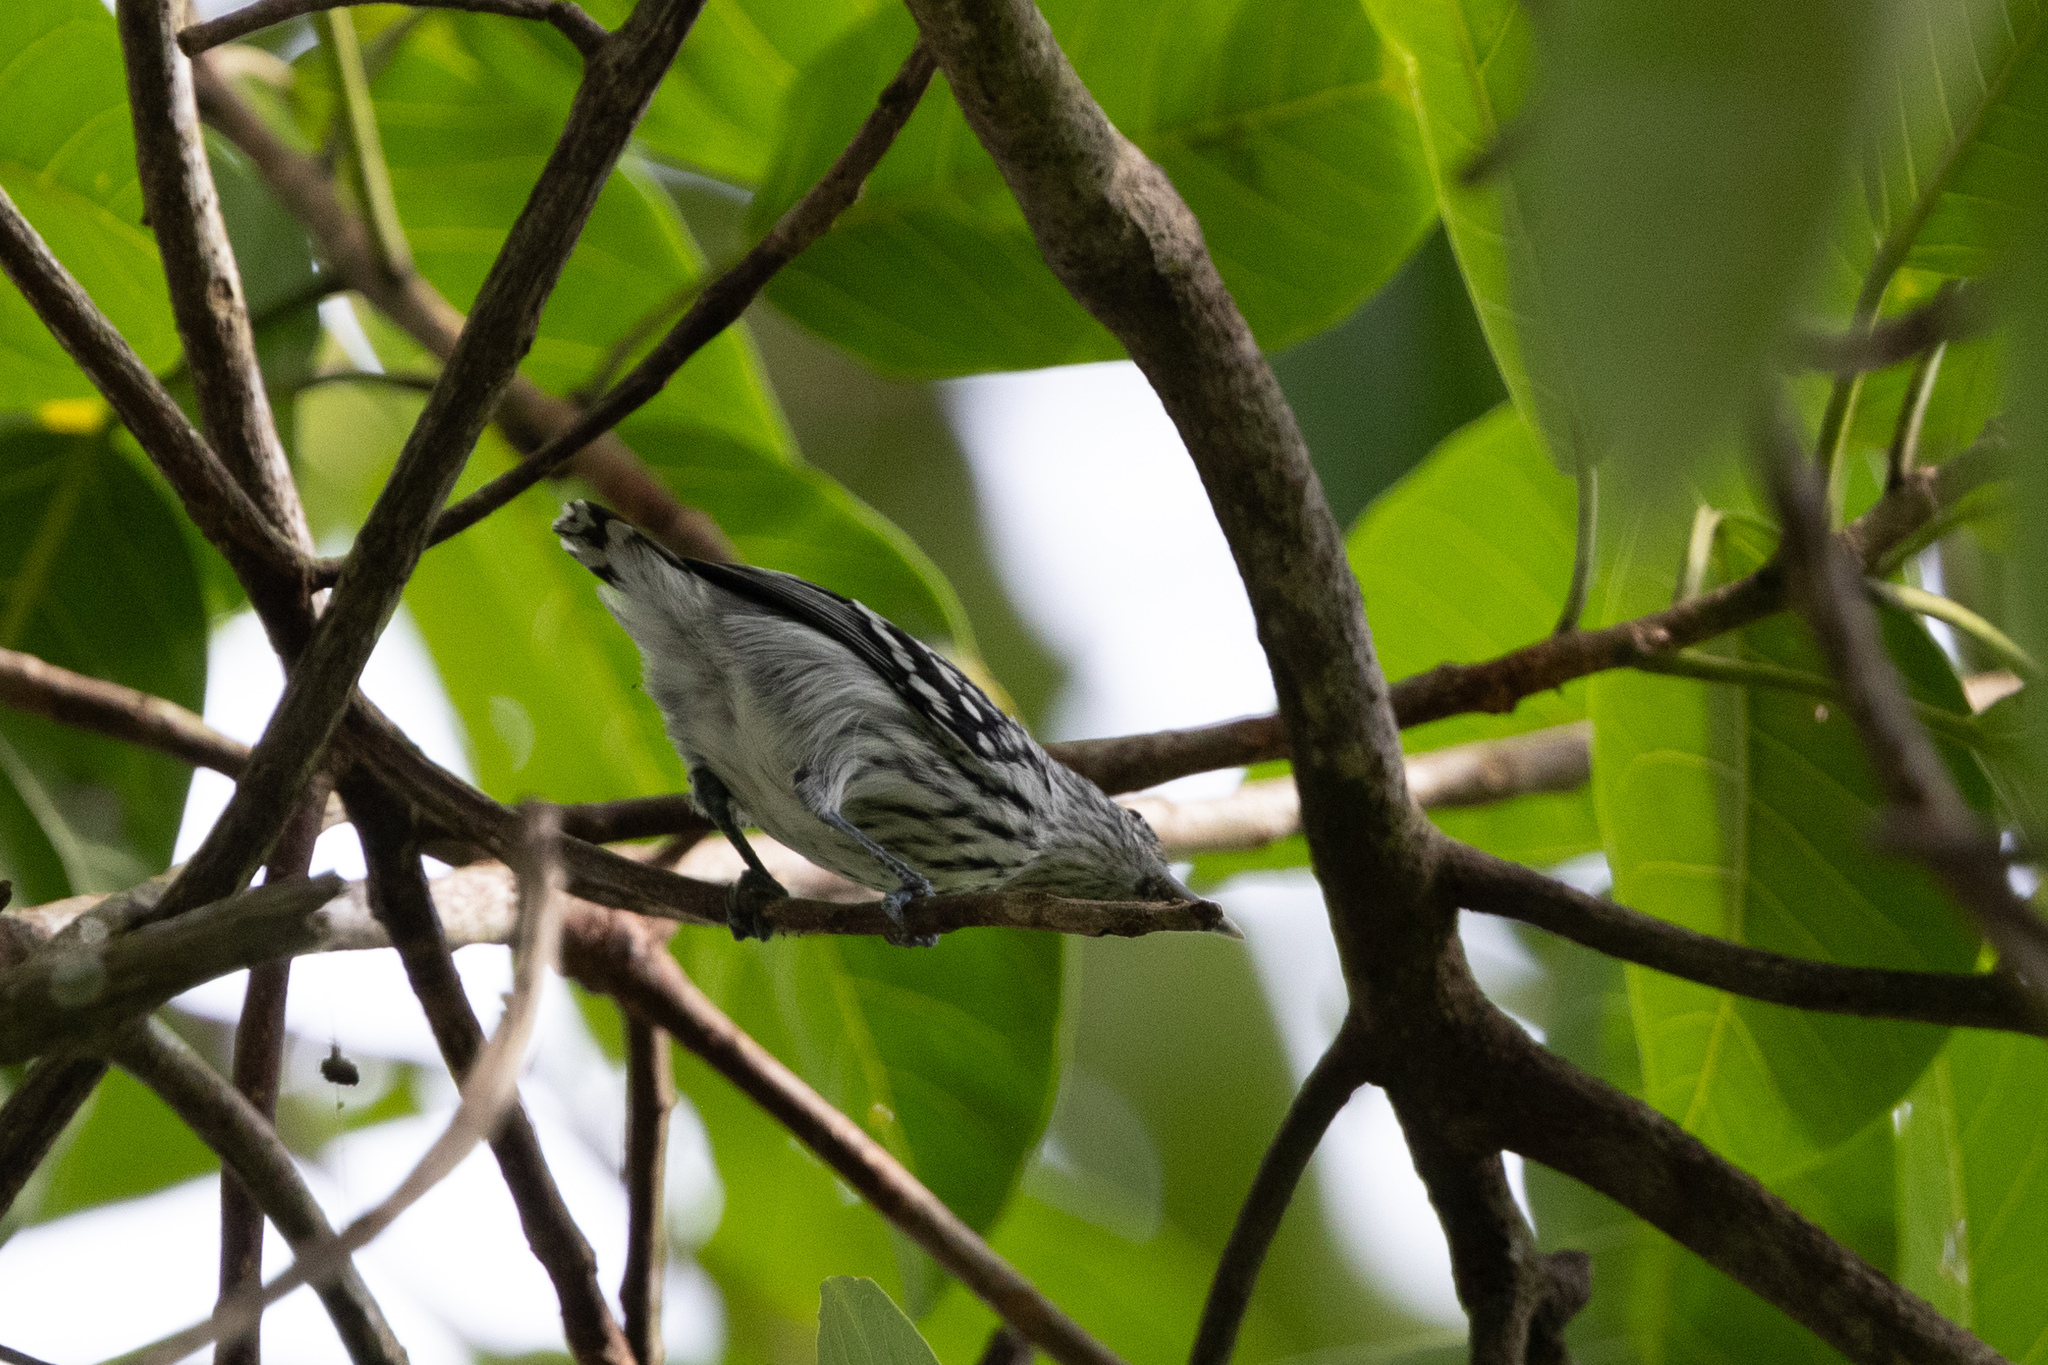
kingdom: Animalia
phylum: Chordata
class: Aves
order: Passeriformes
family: Thamnophilidae
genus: Myrmotherula
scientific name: Myrmotherula pacifica
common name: Pacific antwren
